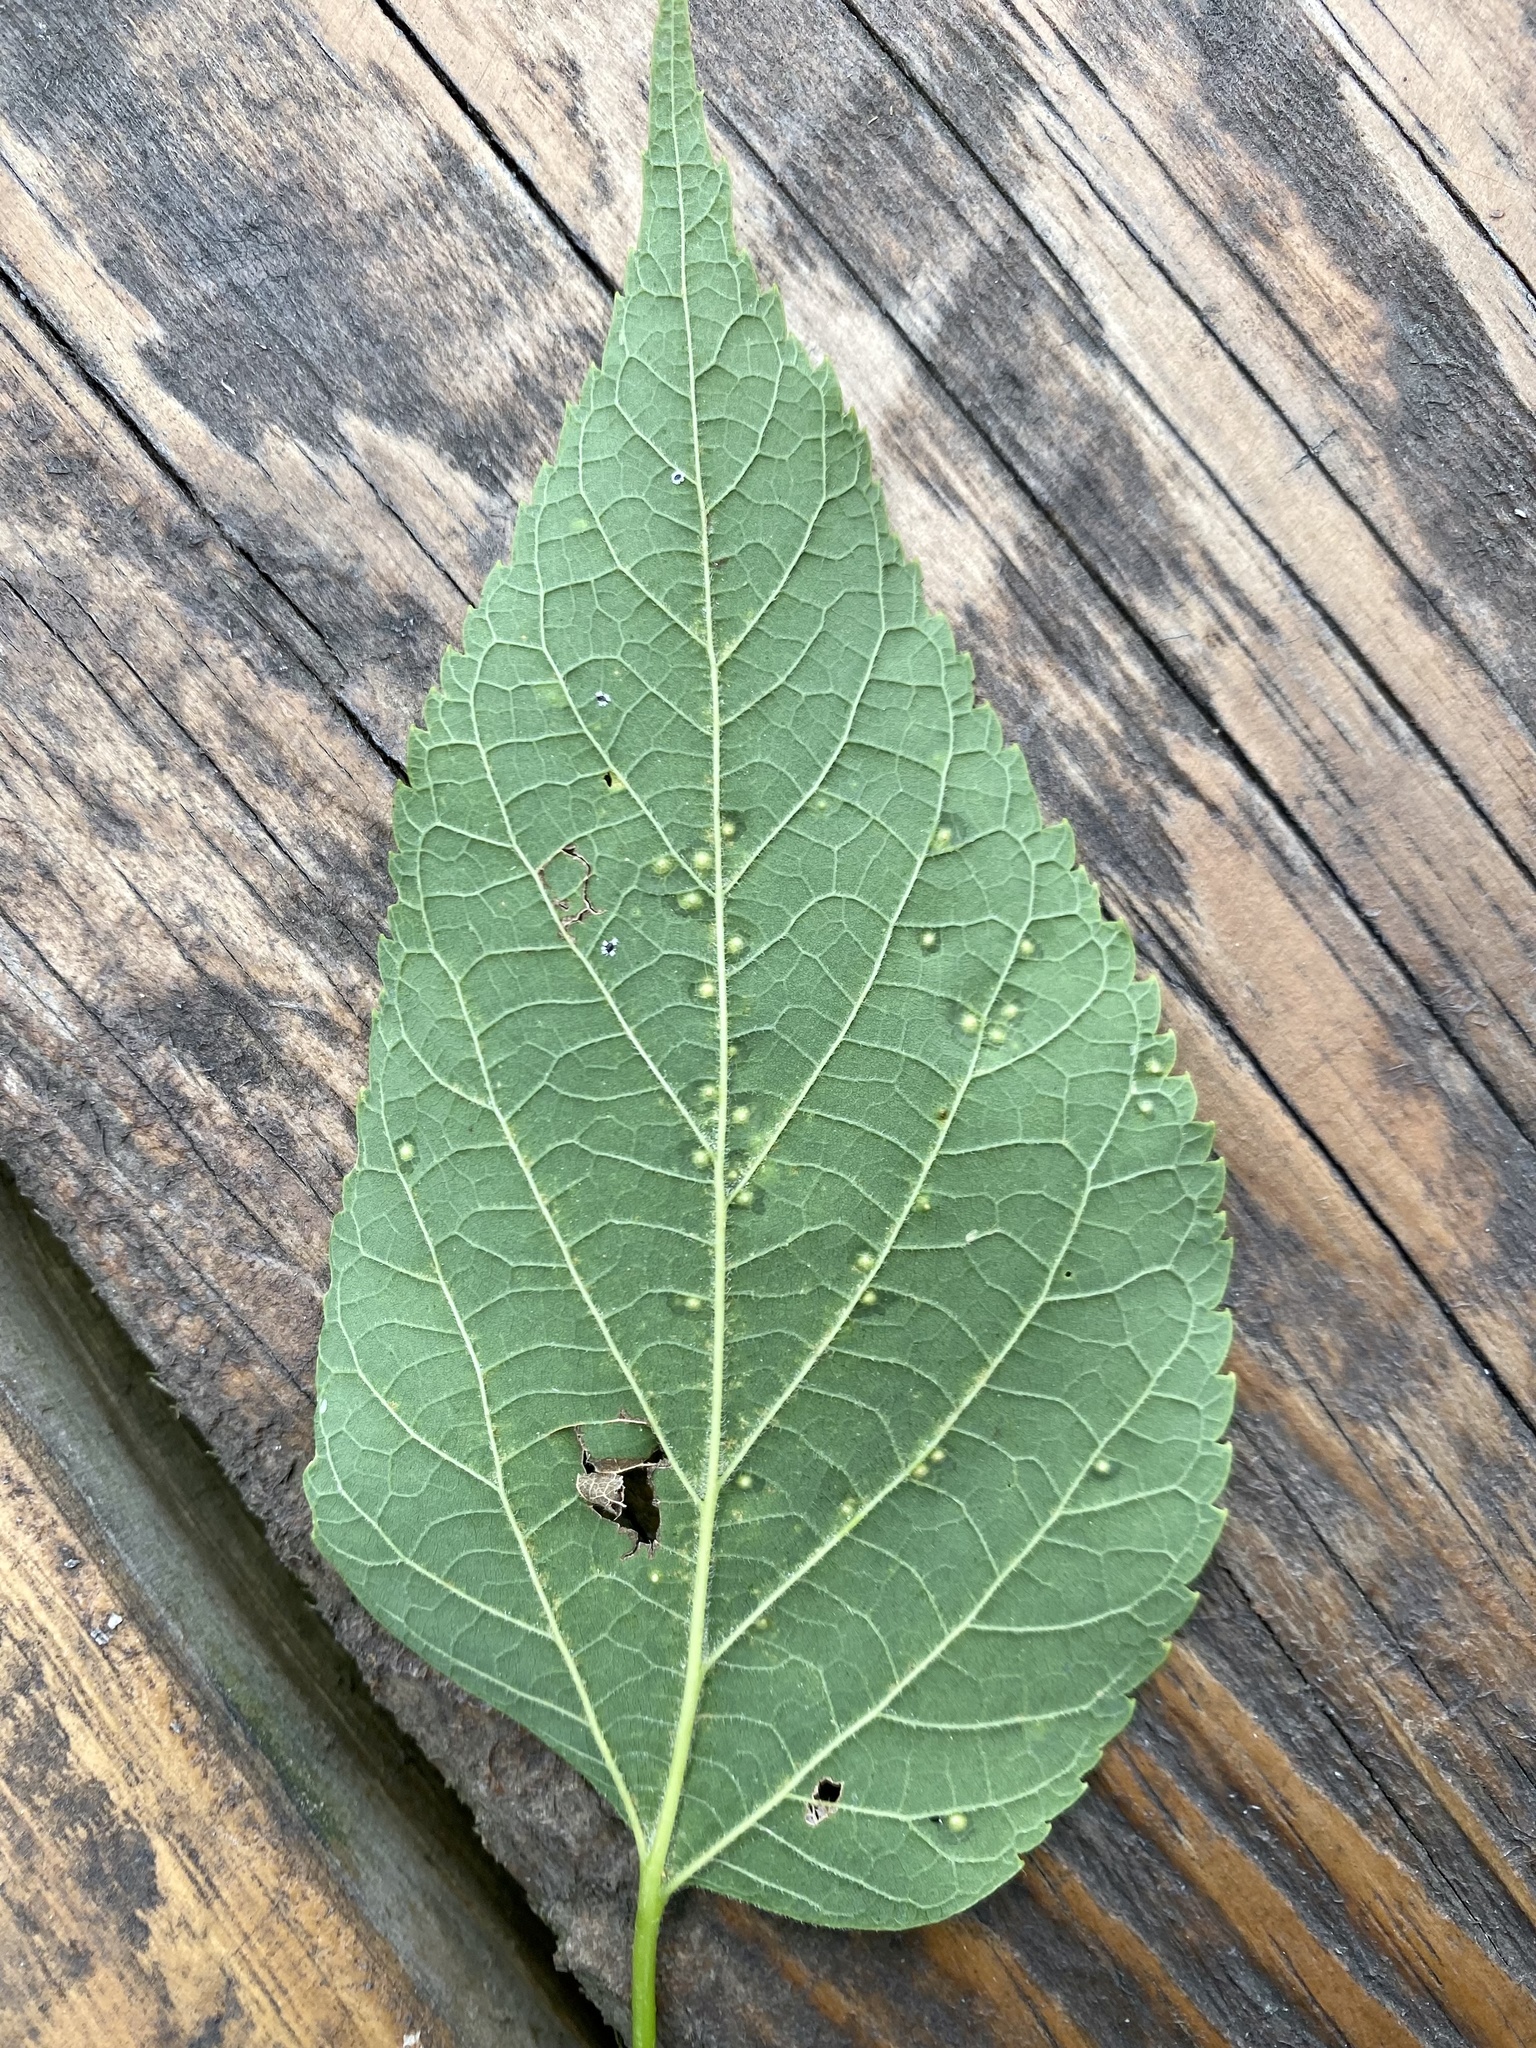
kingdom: Animalia
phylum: Arthropoda
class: Insecta
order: Hemiptera
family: Aphalaridae
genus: Pachypsylla
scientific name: Pachypsylla celtidisvesicula
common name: Hackberry blister gall psyllid
